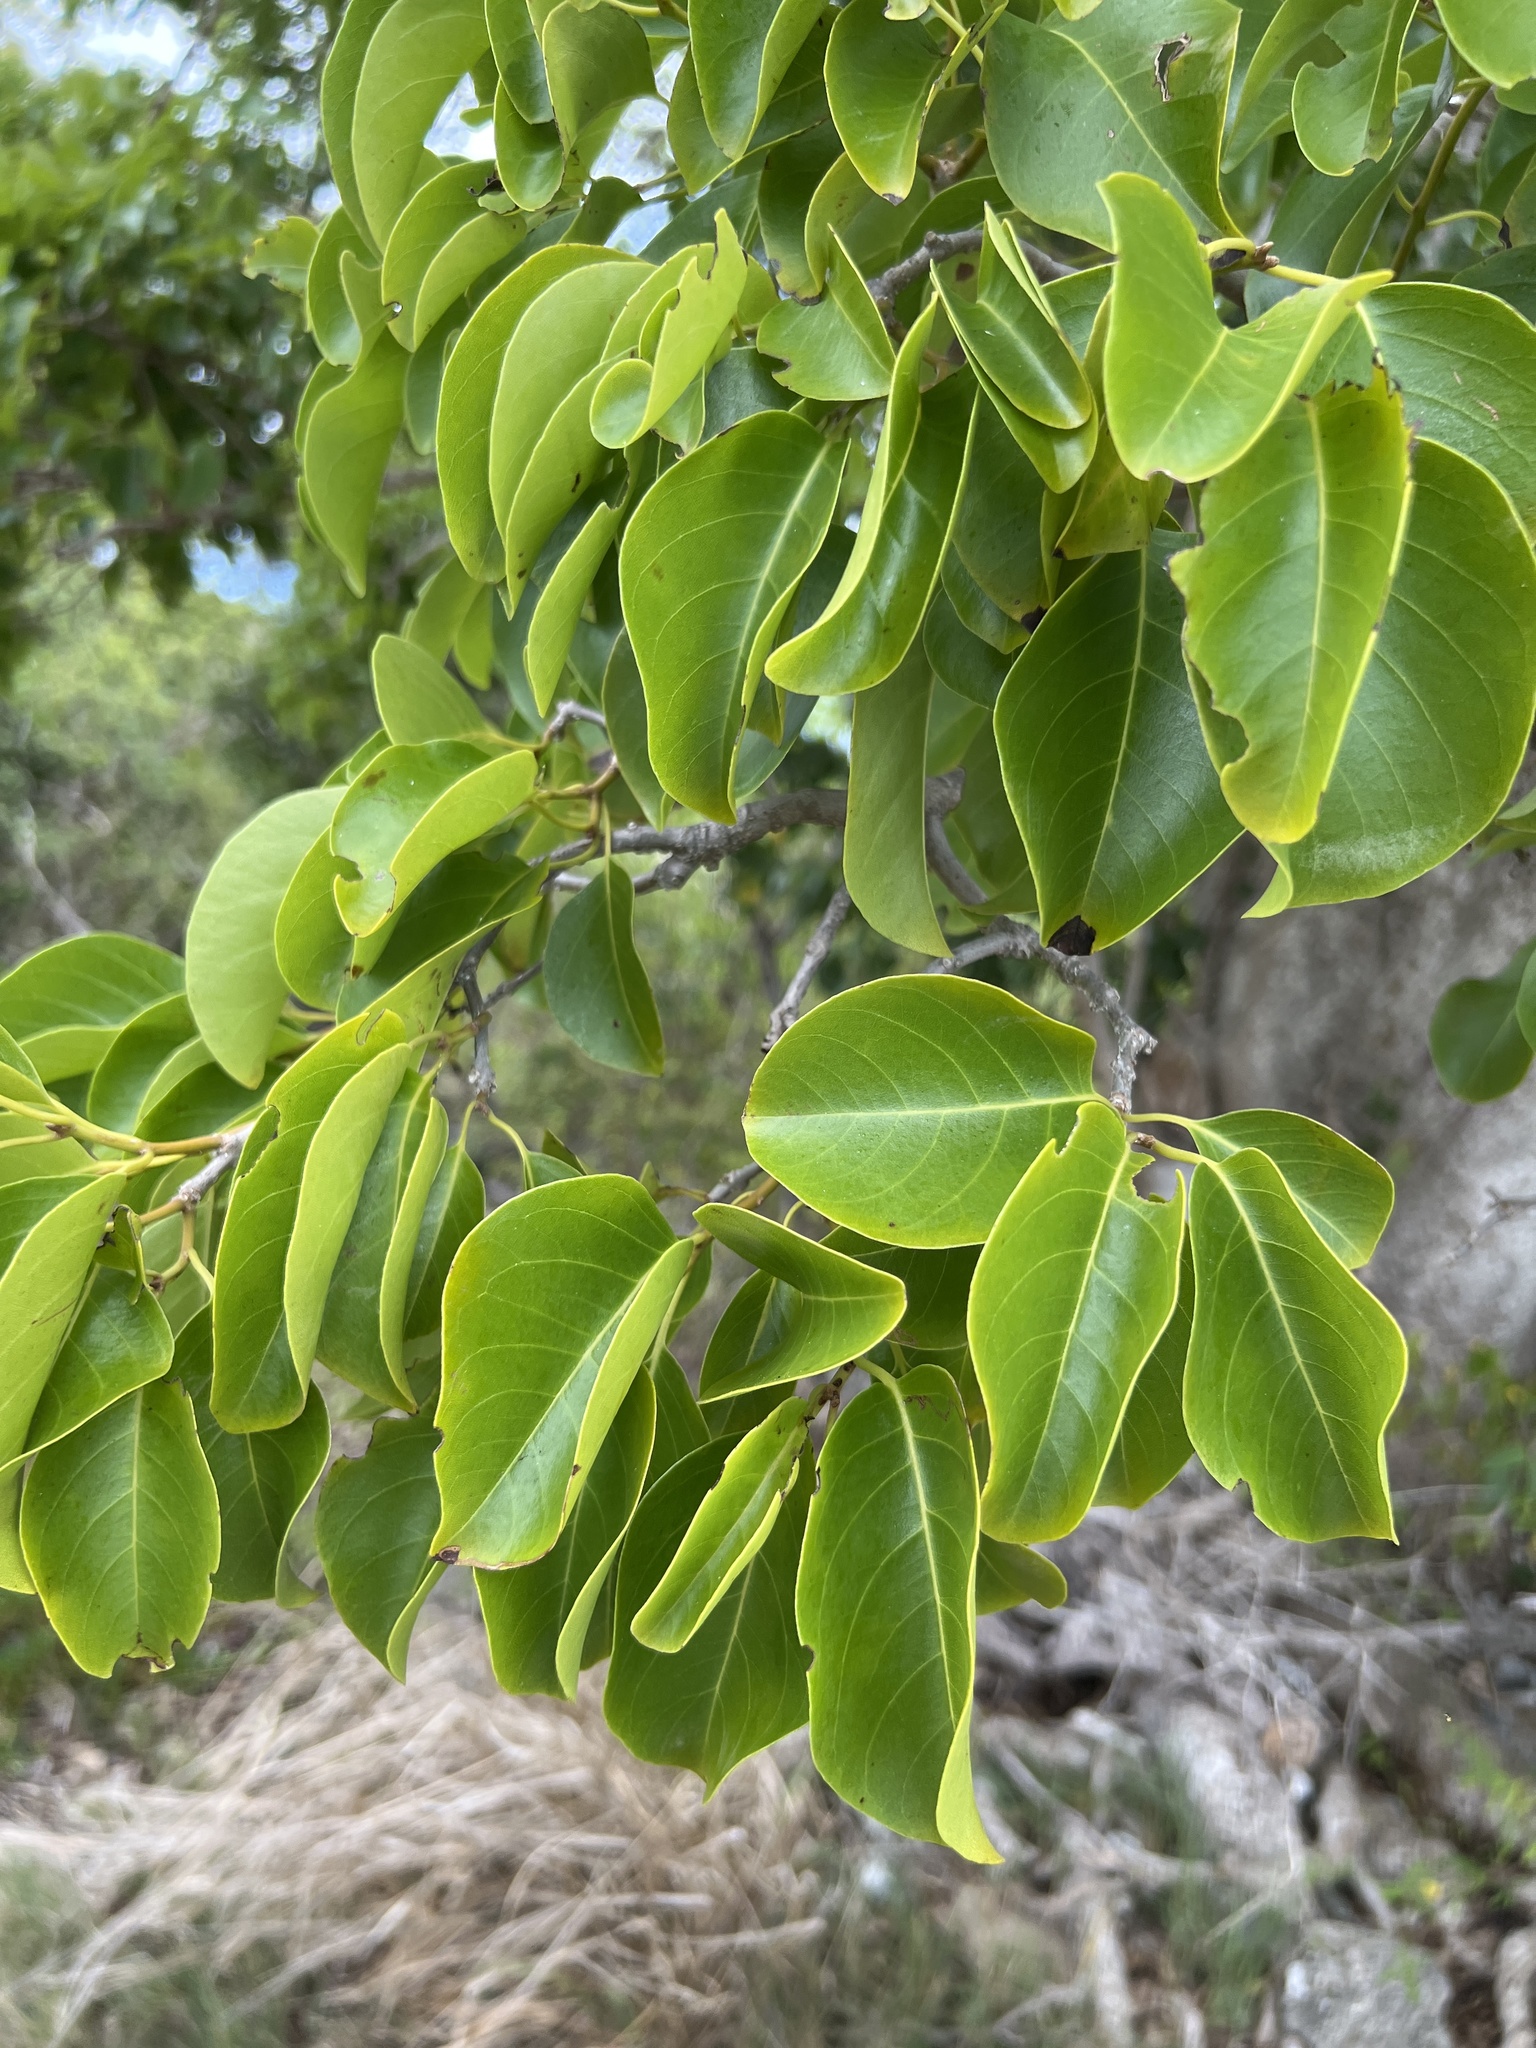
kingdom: Plantae
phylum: Tracheophyta
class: Magnoliopsida
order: Caryophyllales
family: Nyctaginaceae
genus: Pisonia
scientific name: Pisonia subcordata
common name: Mampoo
